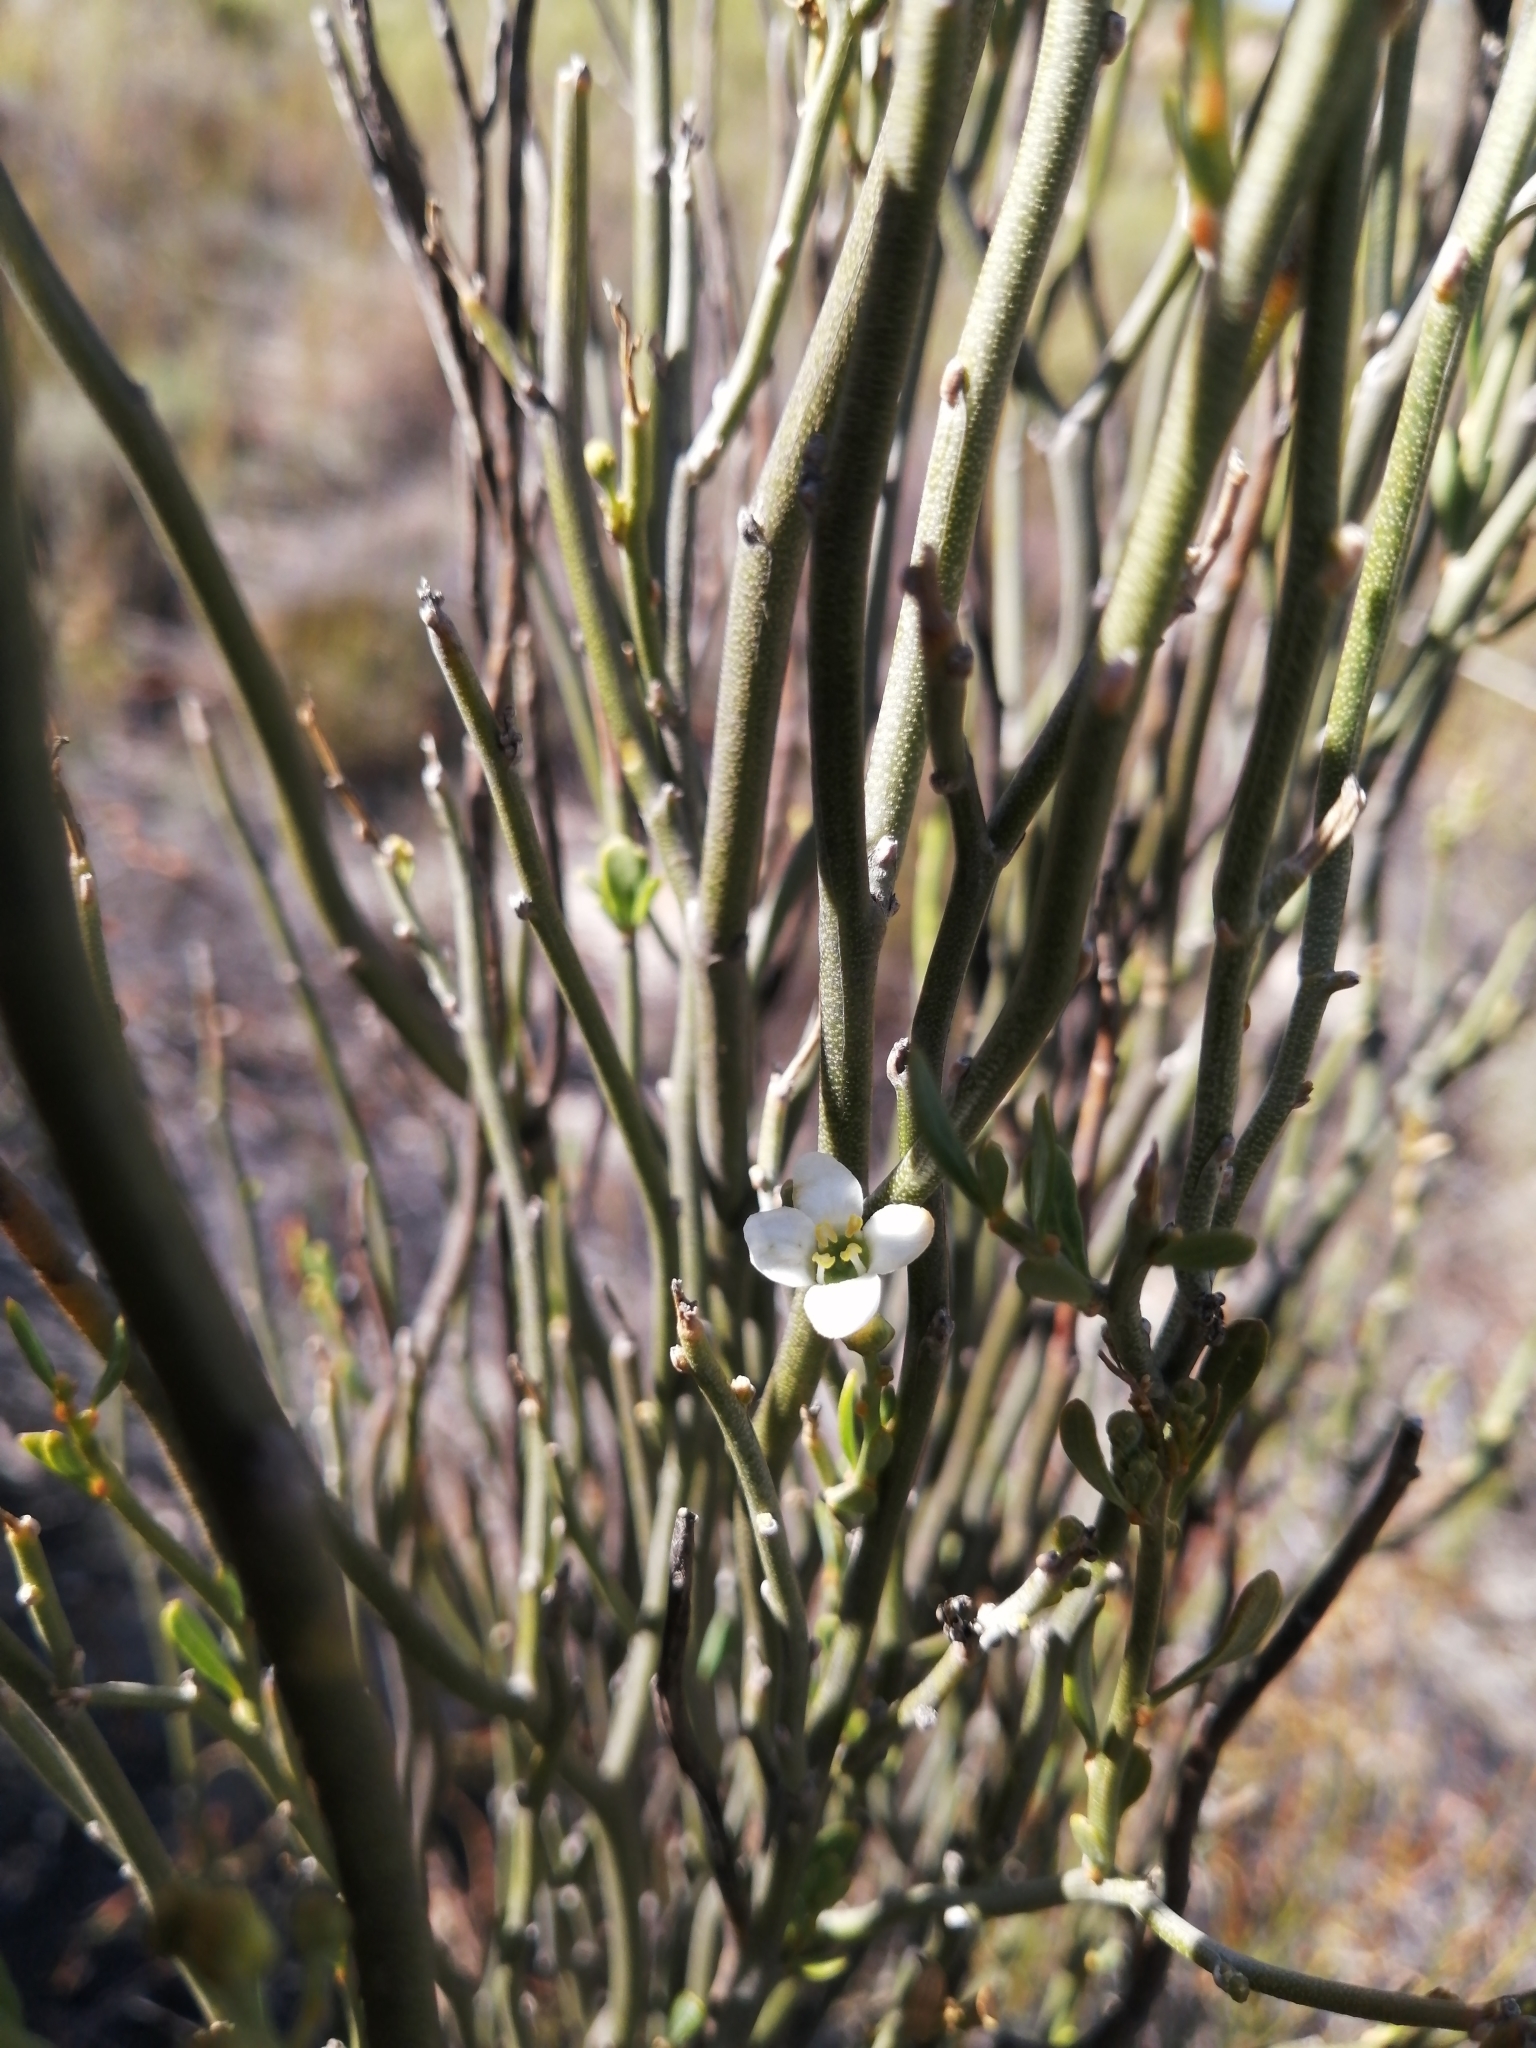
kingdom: Plantae
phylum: Tracheophyta
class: Magnoliopsida
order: Solanales
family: Montiniaceae
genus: Montinia
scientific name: Montinia caryophyllacea
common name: Wild clove-bush
